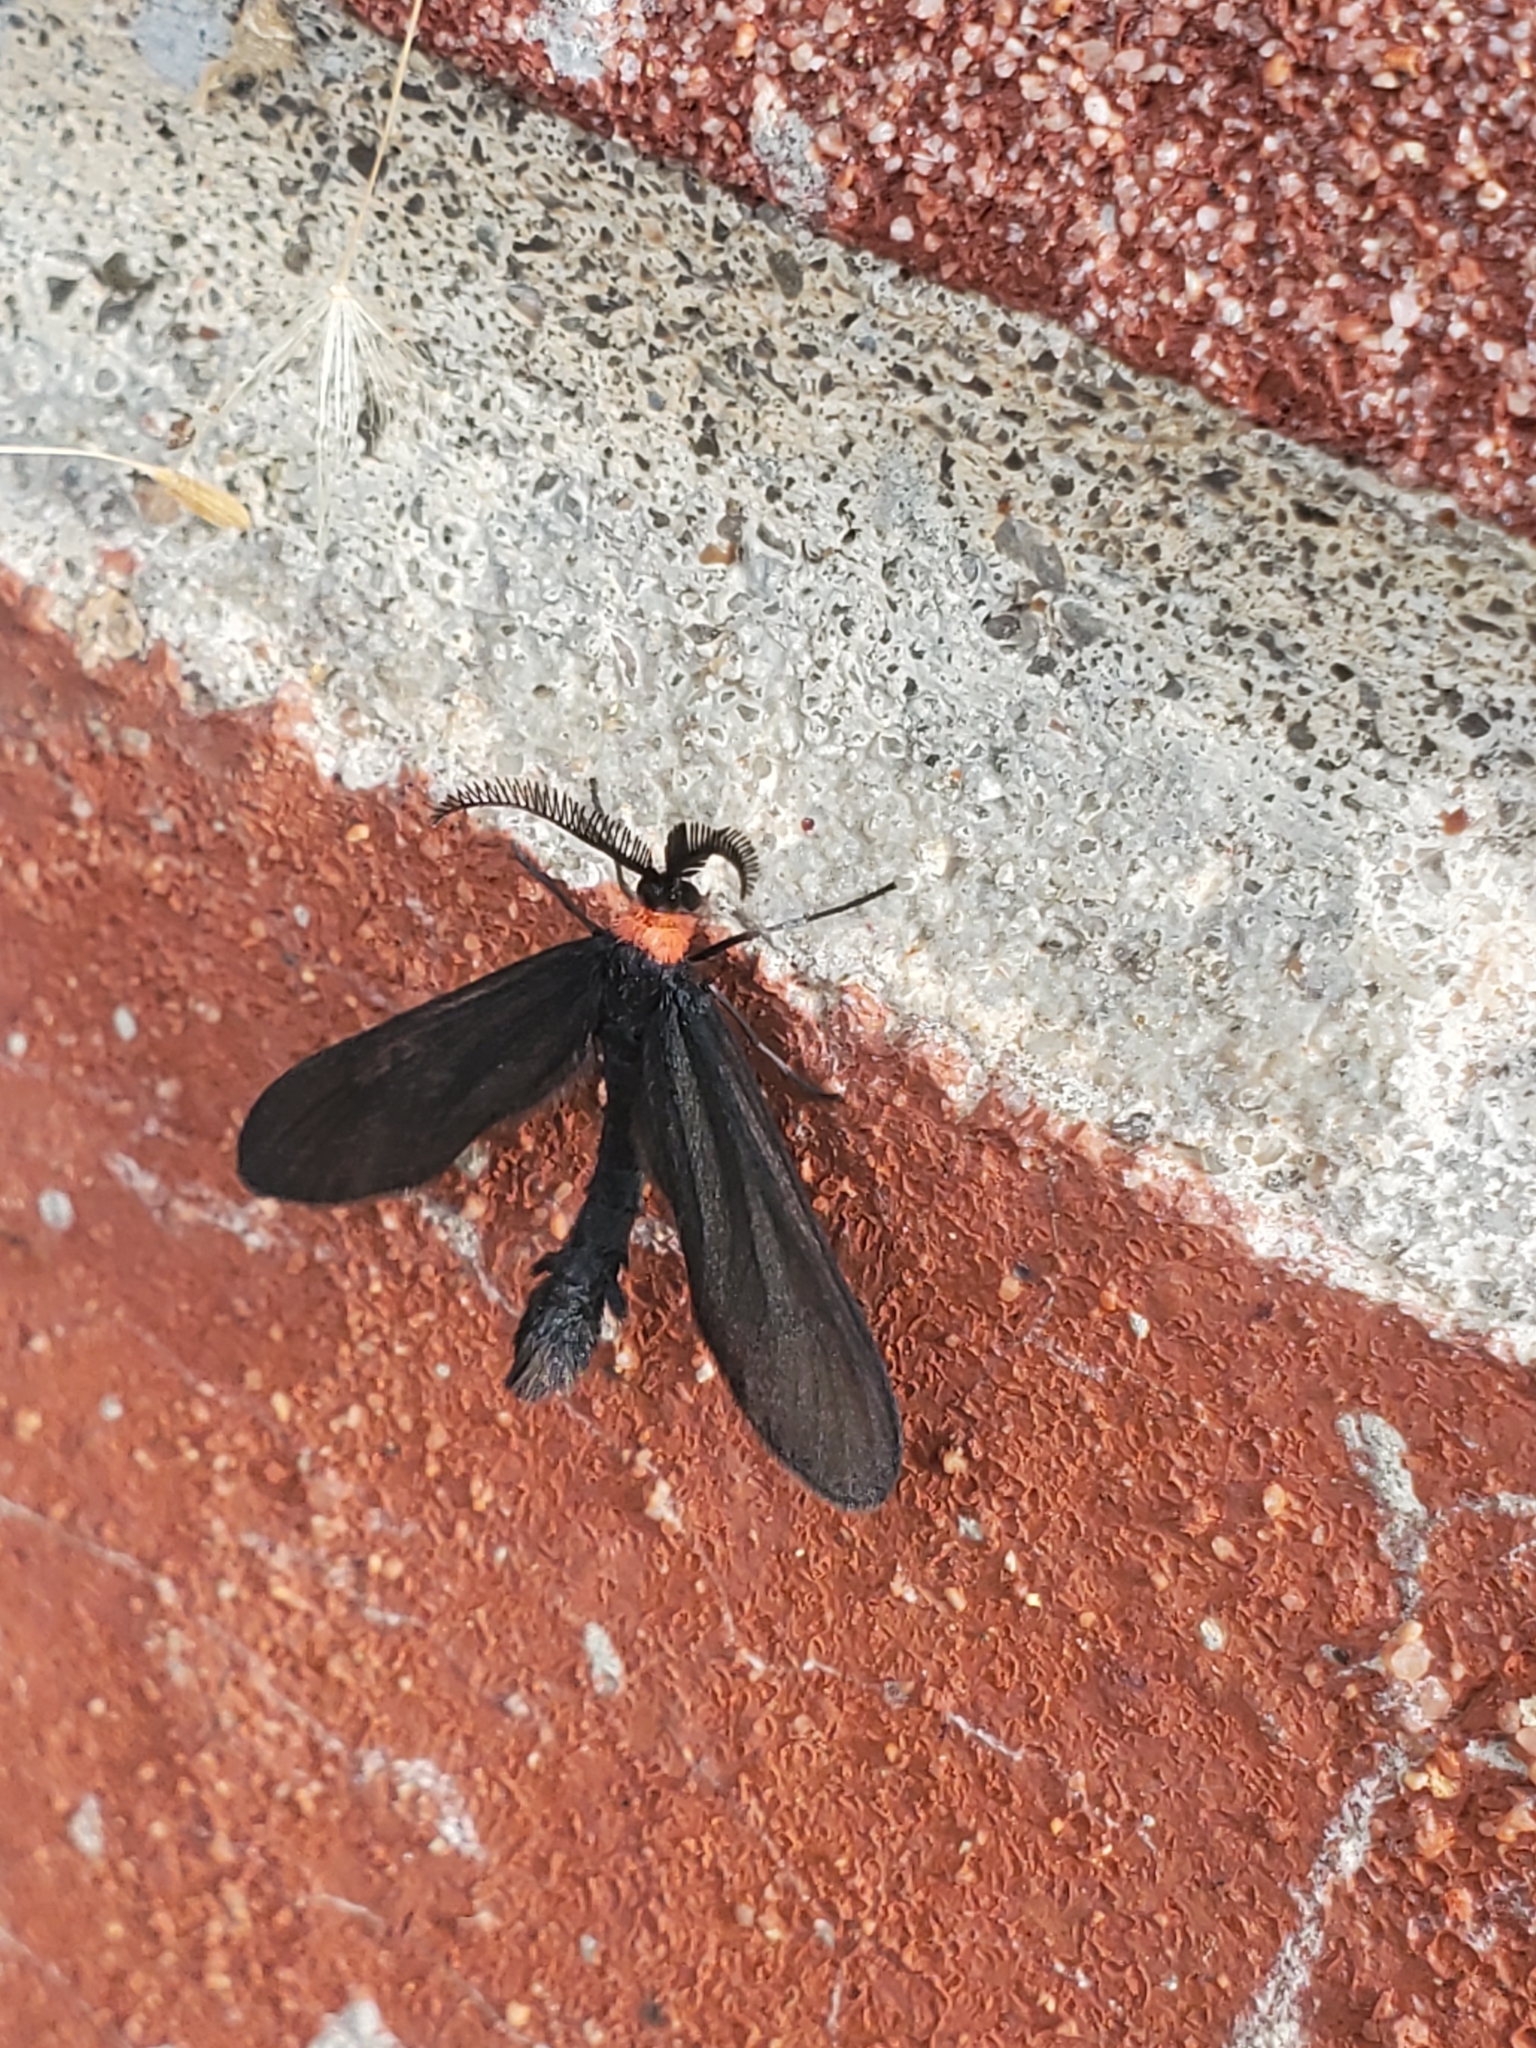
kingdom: Animalia
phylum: Arthropoda
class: Insecta
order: Lepidoptera
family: Zygaenidae
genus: Harrisina
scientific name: Harrisina americana
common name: Grapeleaf skeletonizer moth
